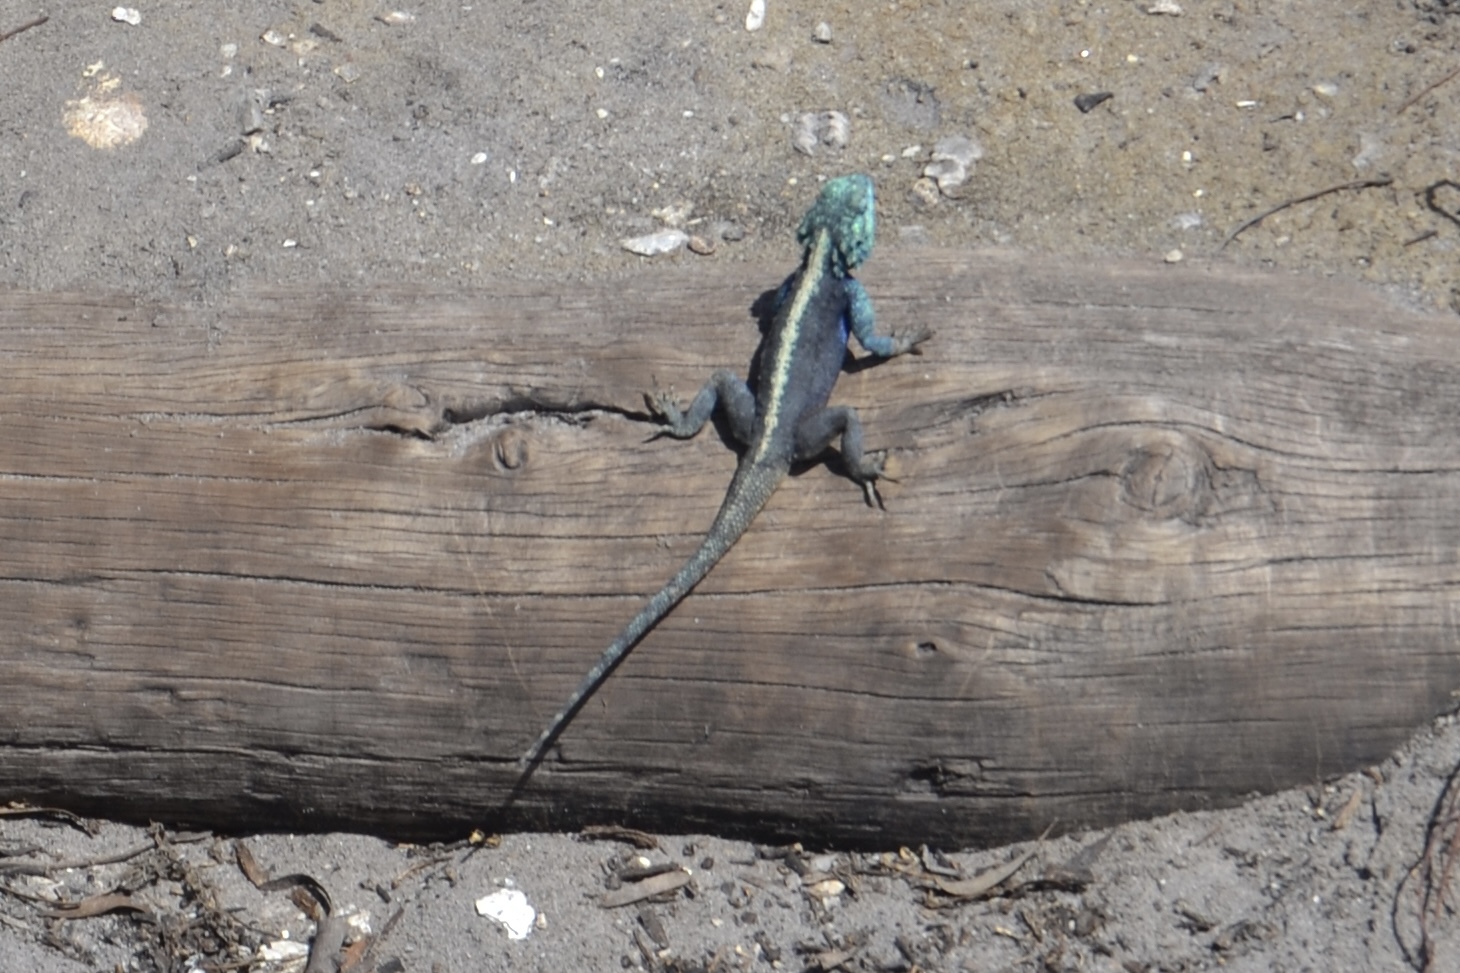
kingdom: Animalia
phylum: Chordata
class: Squamata
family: Agamidae
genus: Agama
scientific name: Agama atra
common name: Southern african rock agama
